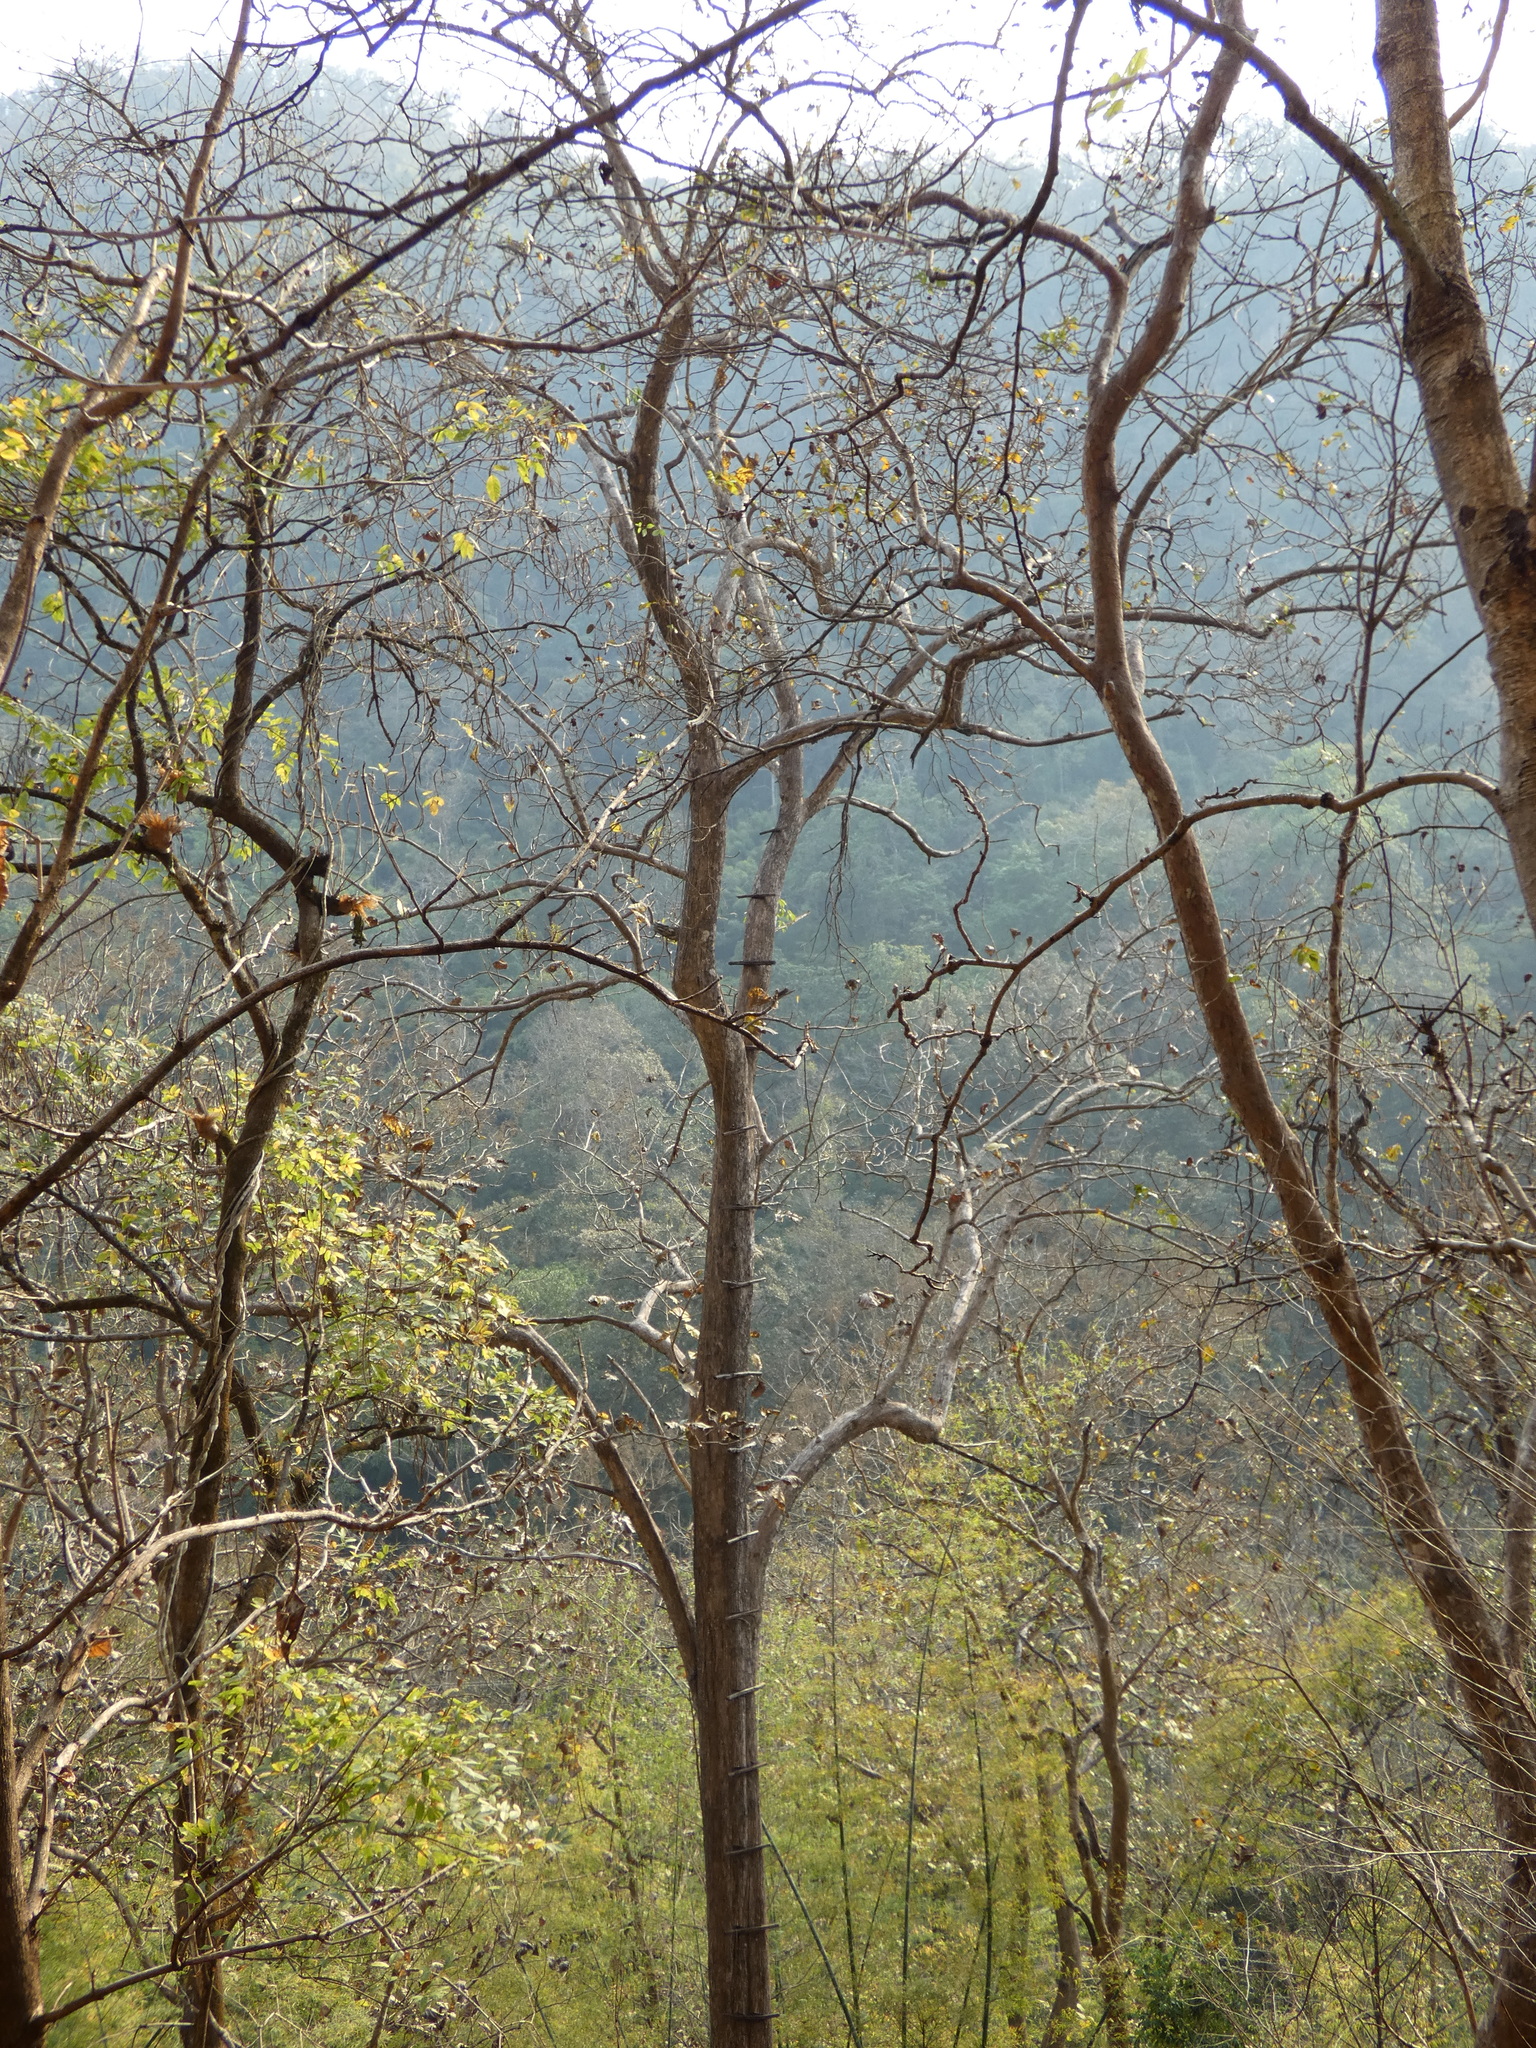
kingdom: Plantae
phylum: Tracheophyta
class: Magnoliopsida
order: Lamiales
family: Lamiaceae
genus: Tectona
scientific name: Tectona grandis
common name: Teak
